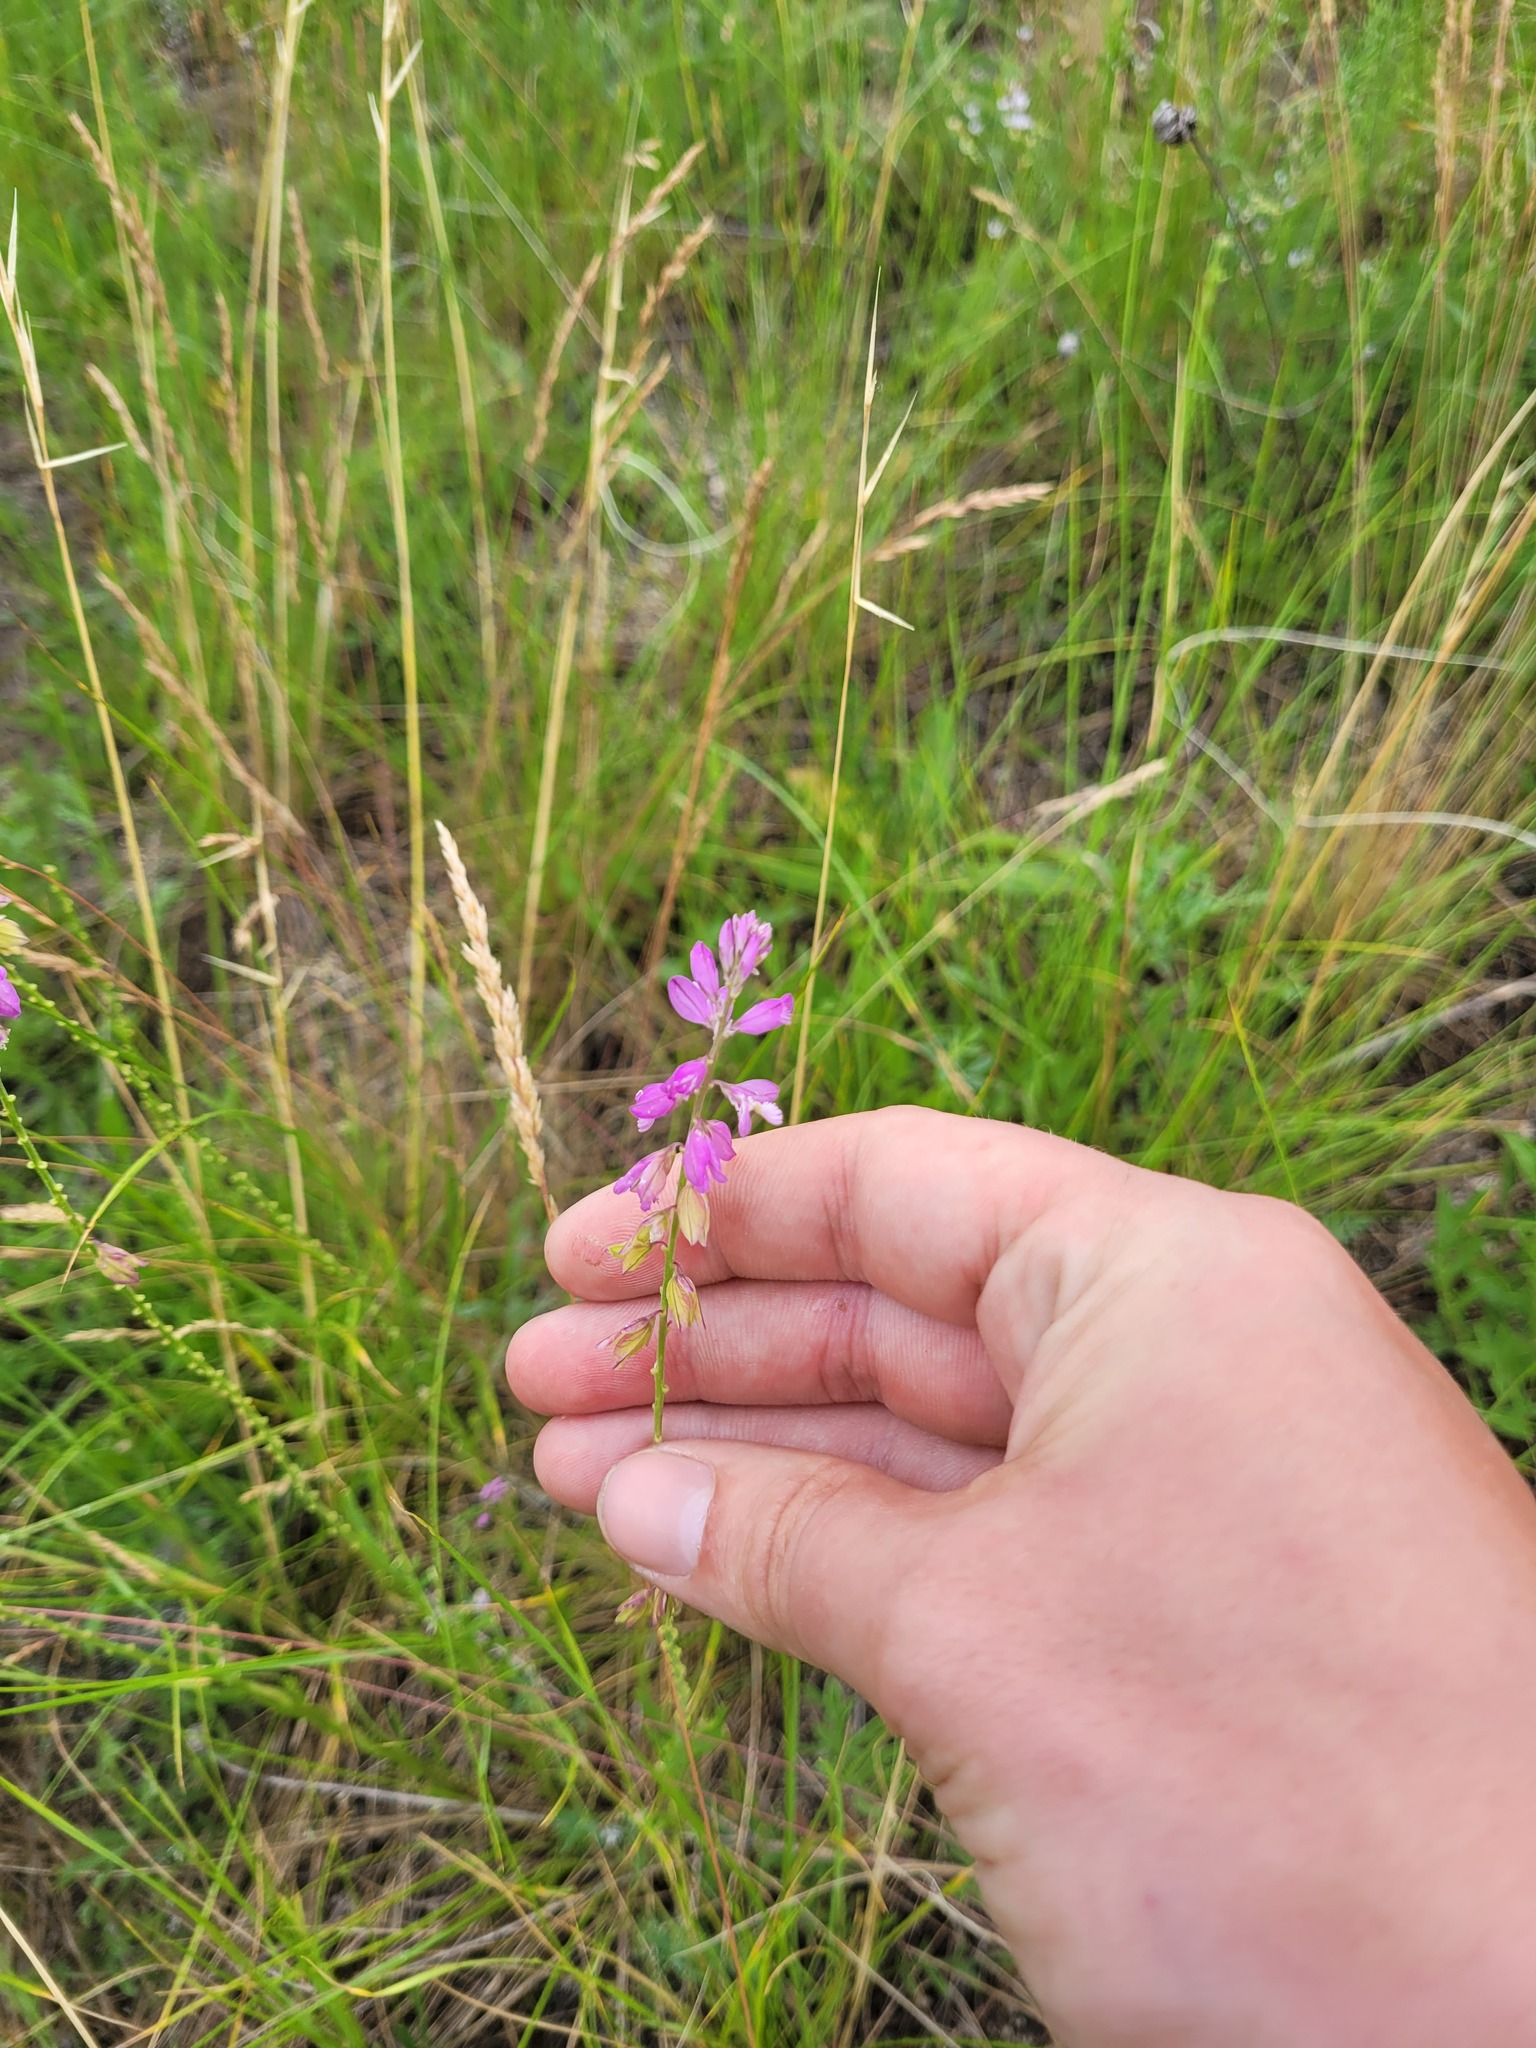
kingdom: Plantae
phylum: Tracheophyta
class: Magnoliopsida
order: Fabales
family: Polygalaceae
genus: Polygala
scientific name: Polygala nicaeensis
